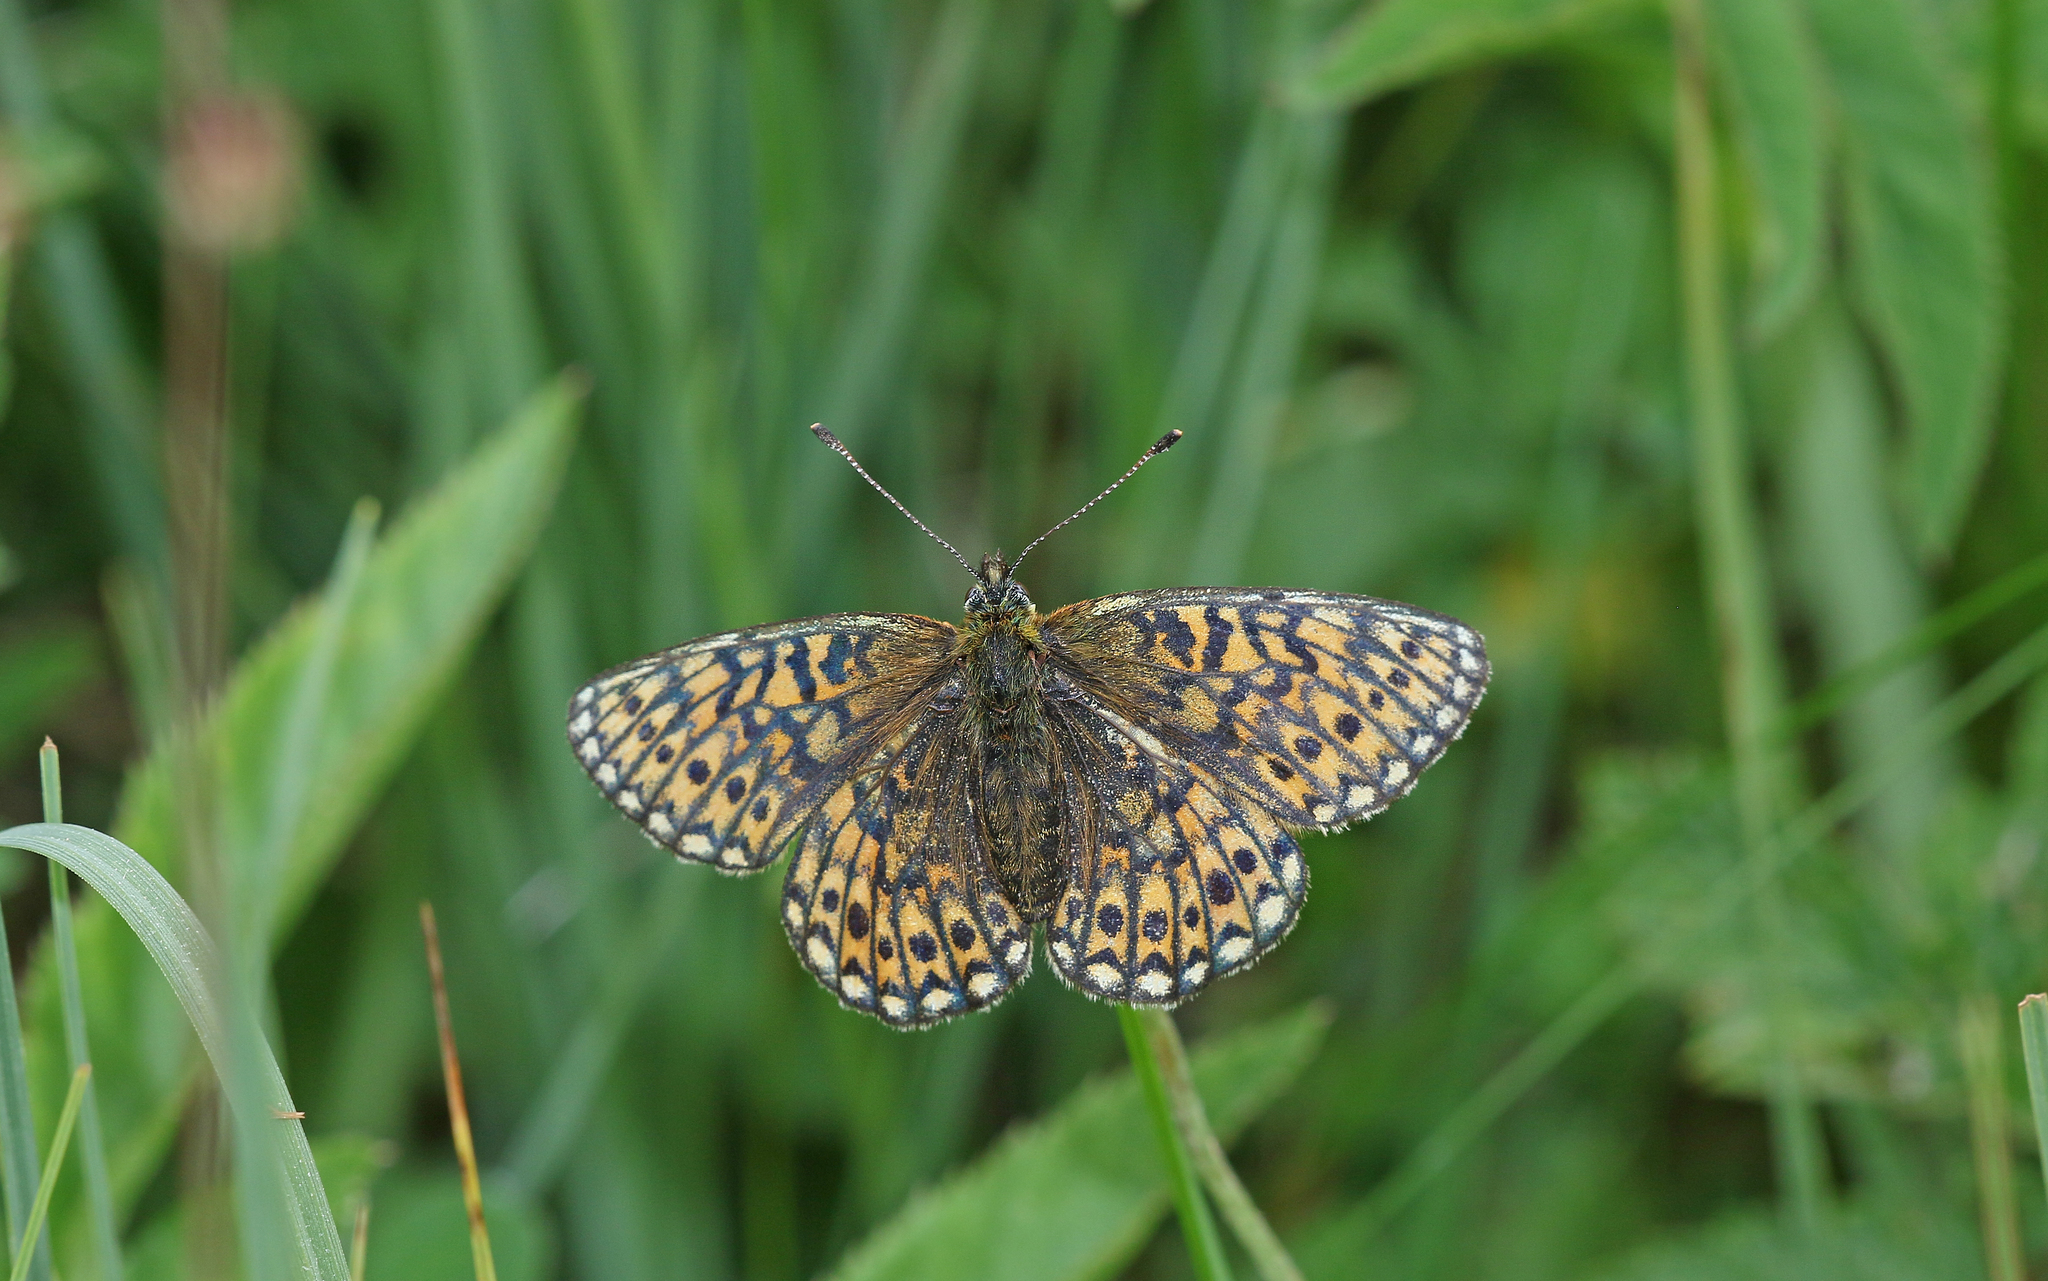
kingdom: Animalia
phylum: Arthropoda
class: Insecta
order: Lepidoptera
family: Nymphalidae
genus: Boloria
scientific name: Boloria eunomia
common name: Bog fritillary
